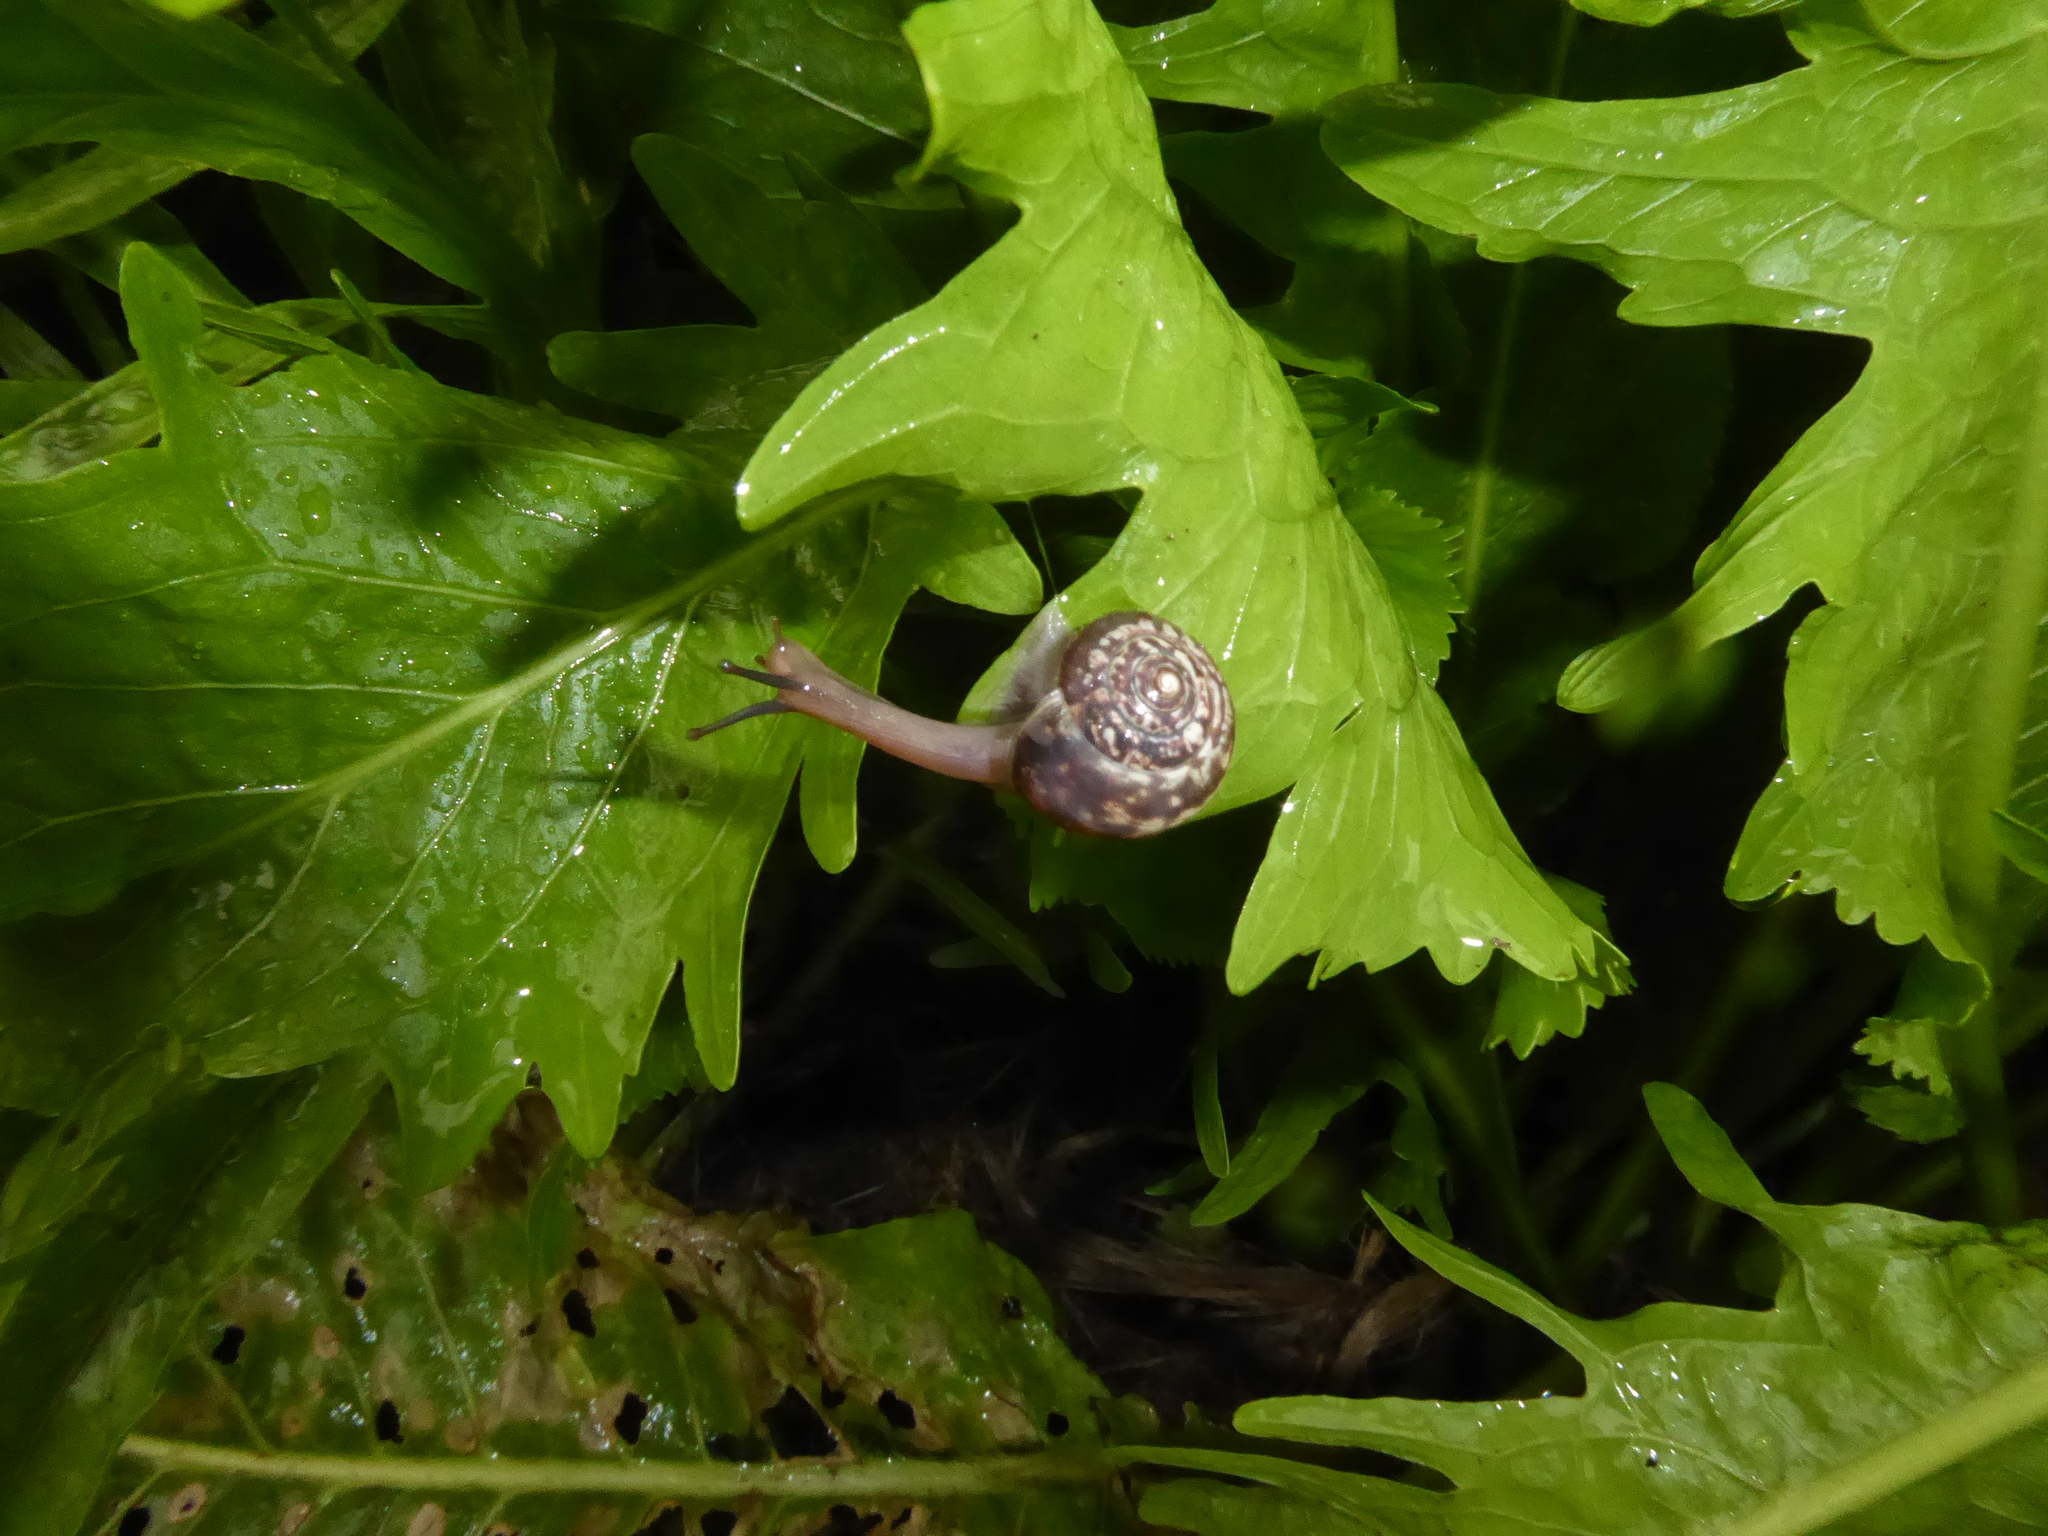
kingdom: Animalia
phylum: Mollusca
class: Gastropoda
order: Stylommatophora
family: Hygromiidae
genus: Monacha
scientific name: Monacha cantiana
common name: Kentish snail
